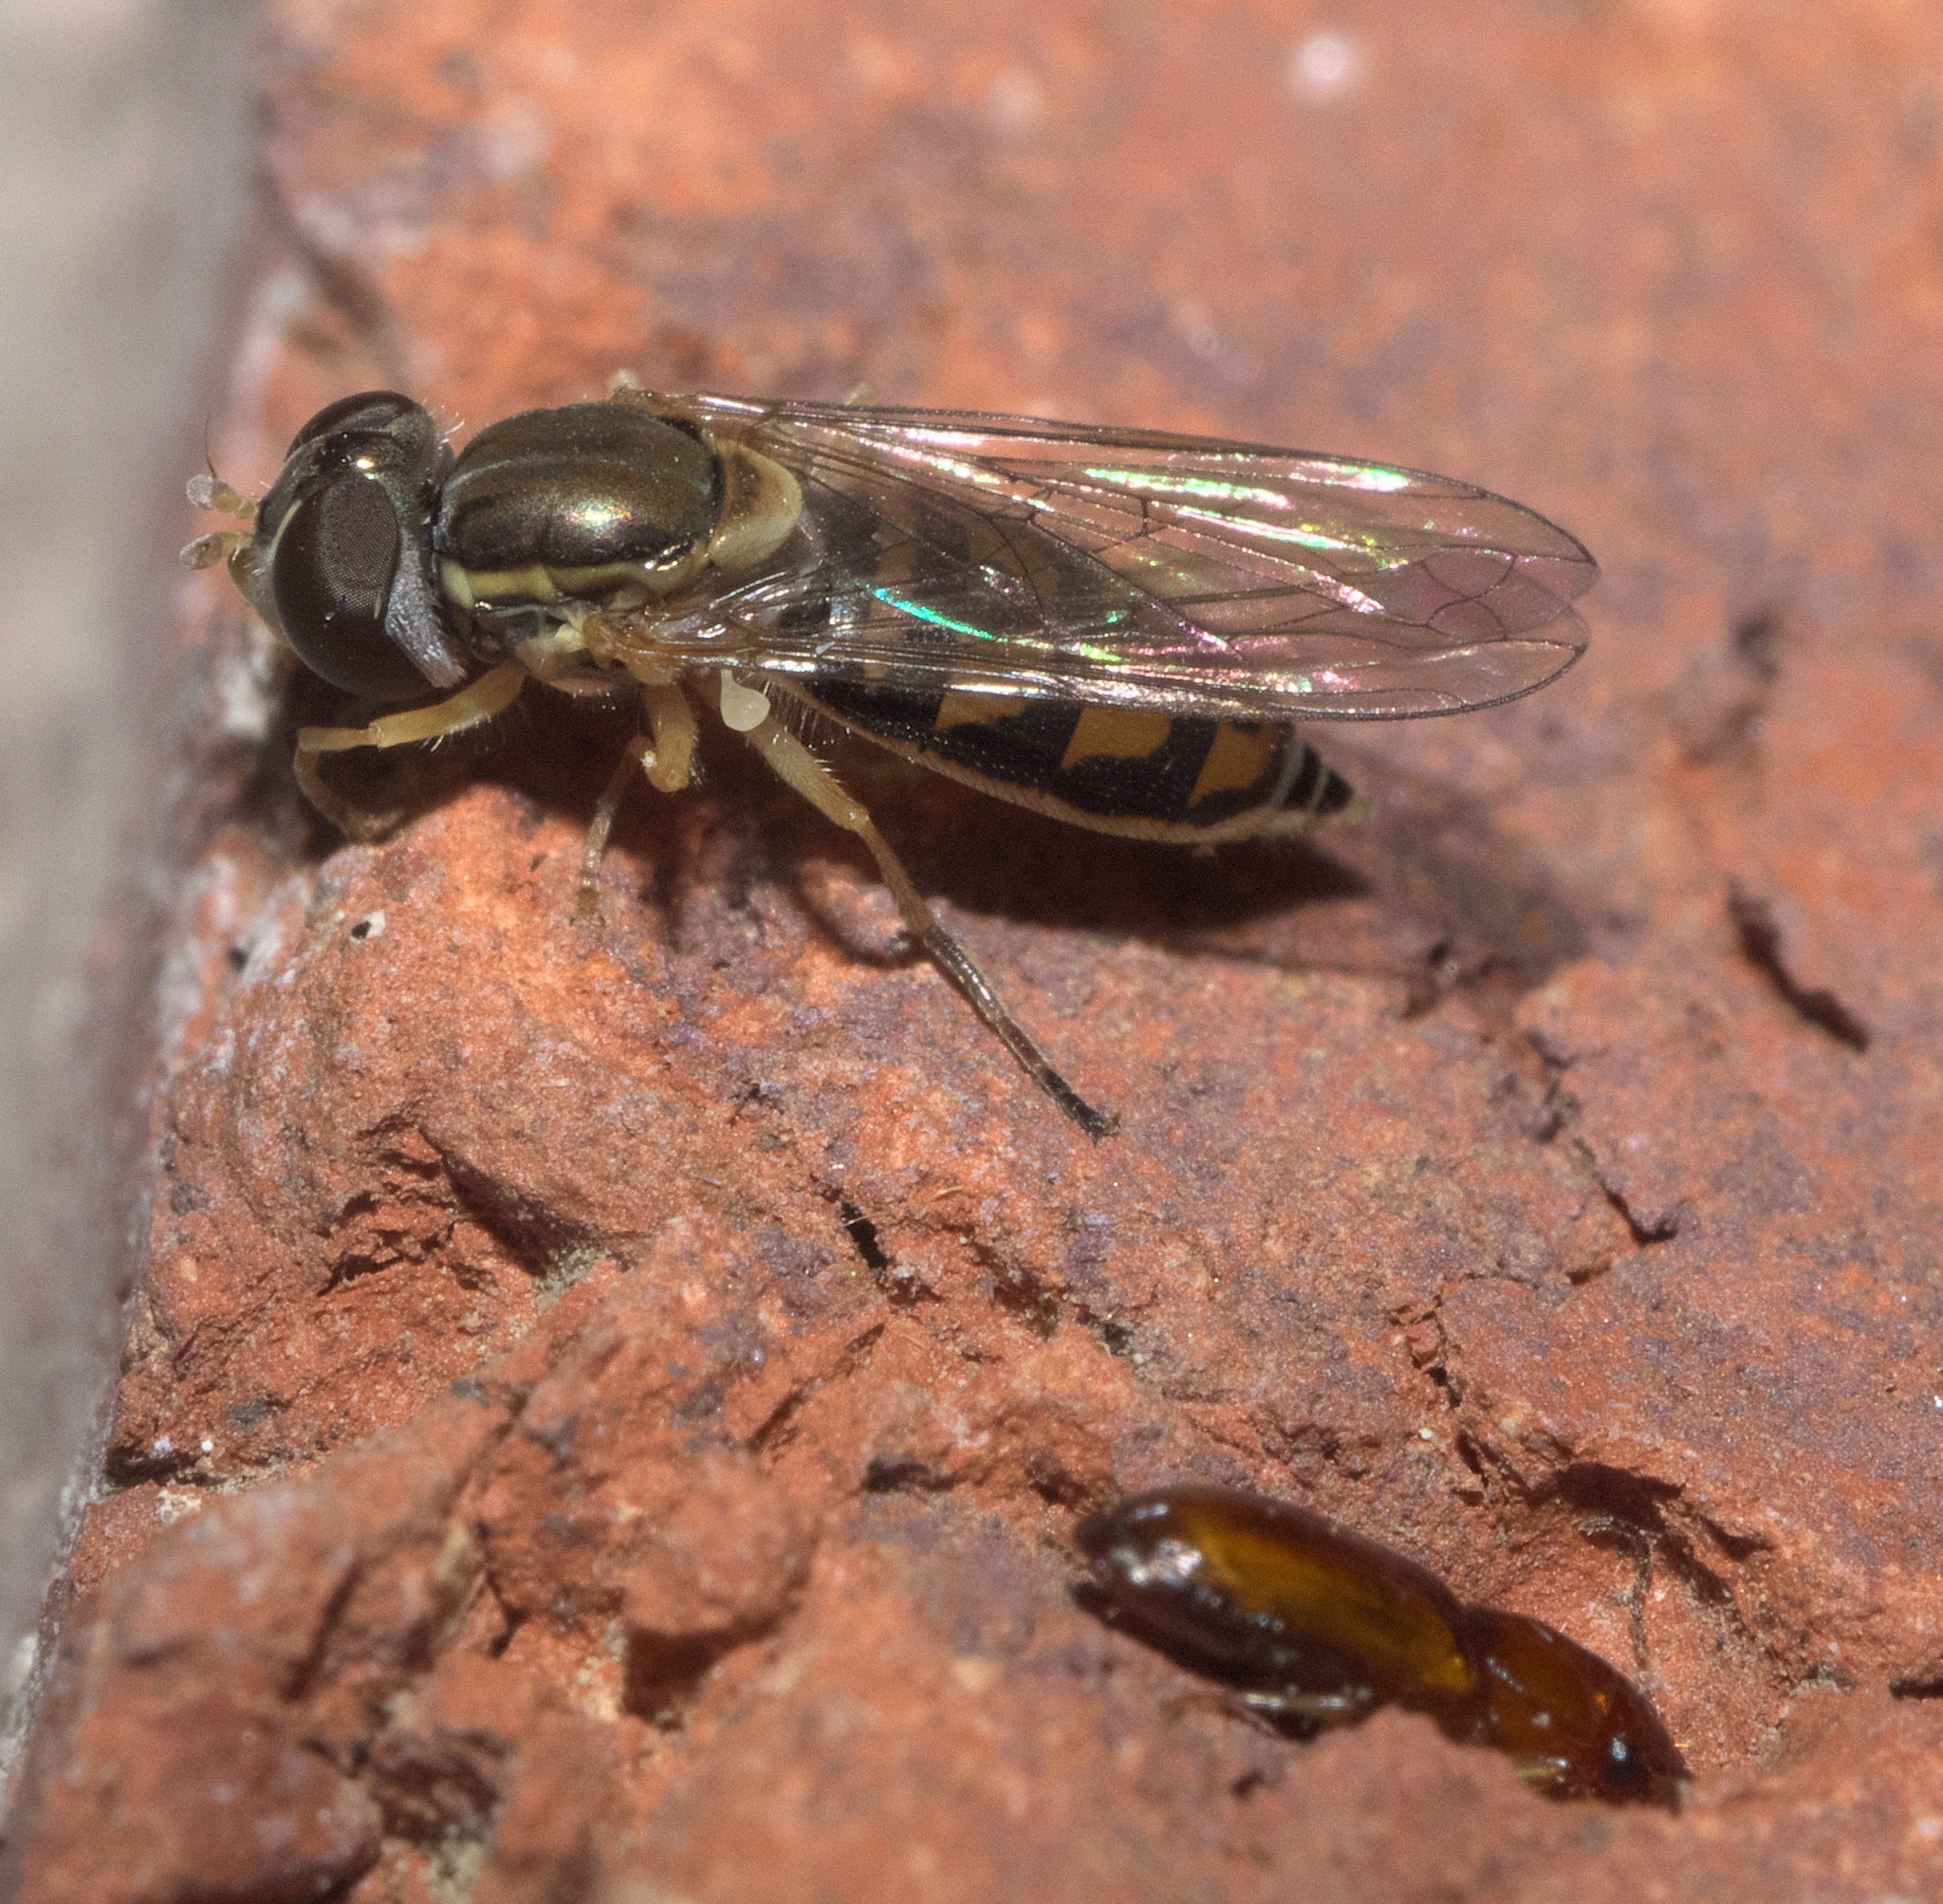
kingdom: Animalia
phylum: Arthropoda
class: Insecta
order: Diptera
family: Syrphidae
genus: Toxomerus
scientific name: Toxomerus marginatus
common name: Syrphid fly
